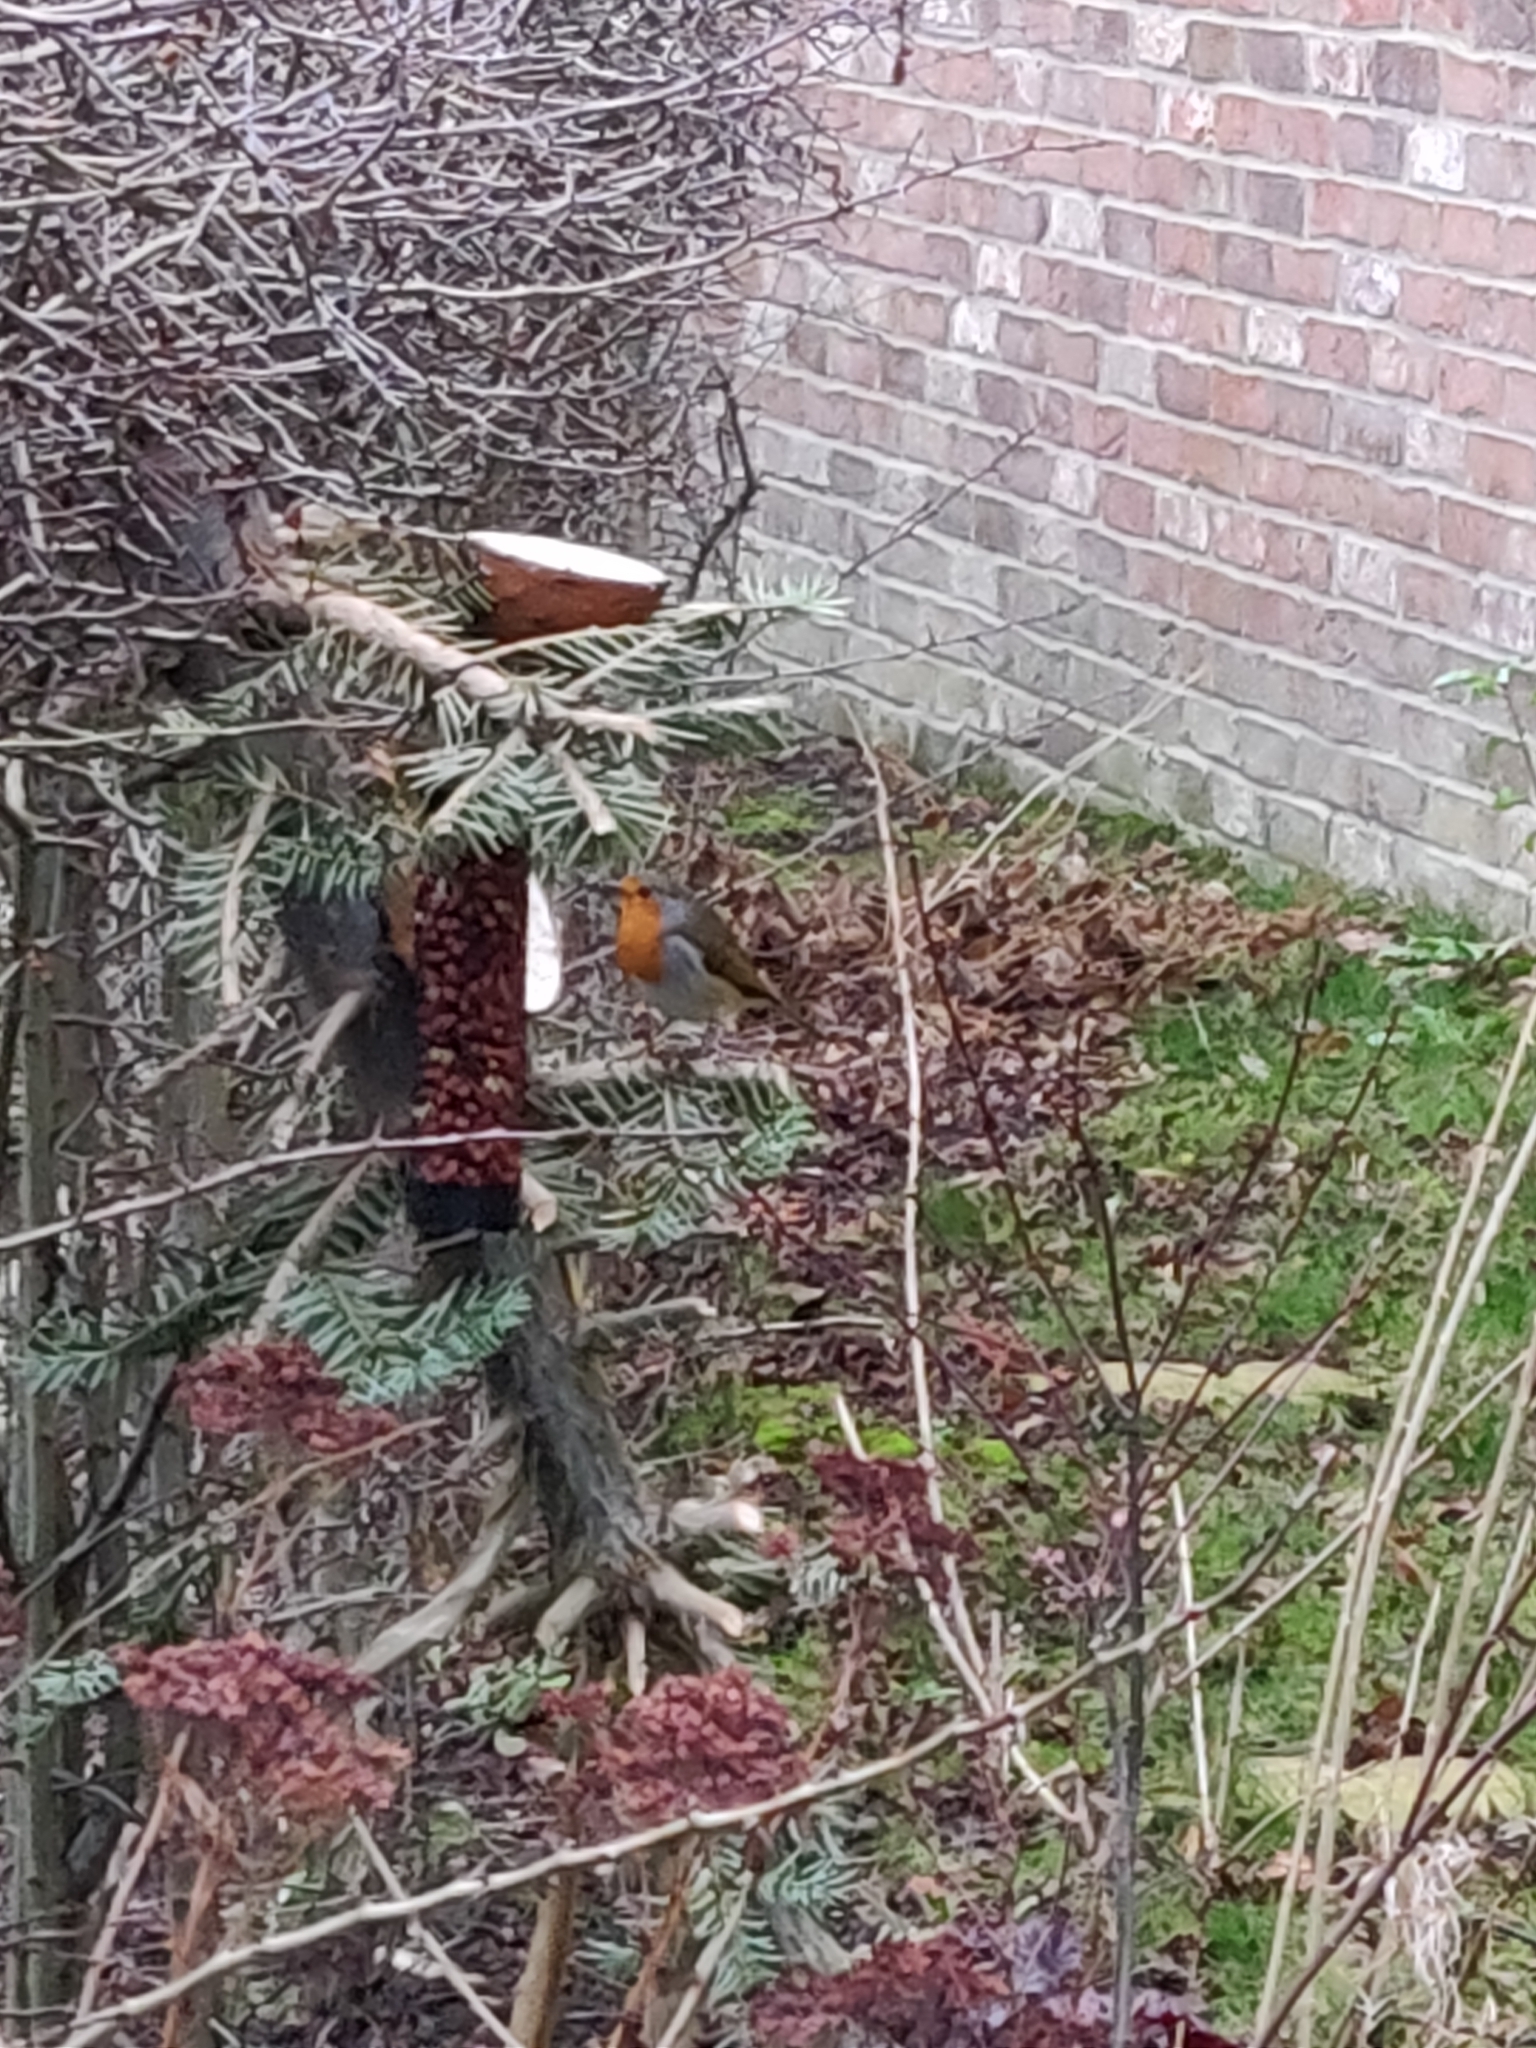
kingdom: Animalia
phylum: Chordata
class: Aves
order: Passeriformes
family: Muscicapidae
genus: Erithacus
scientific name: Erithacus rubecula
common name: European robin
